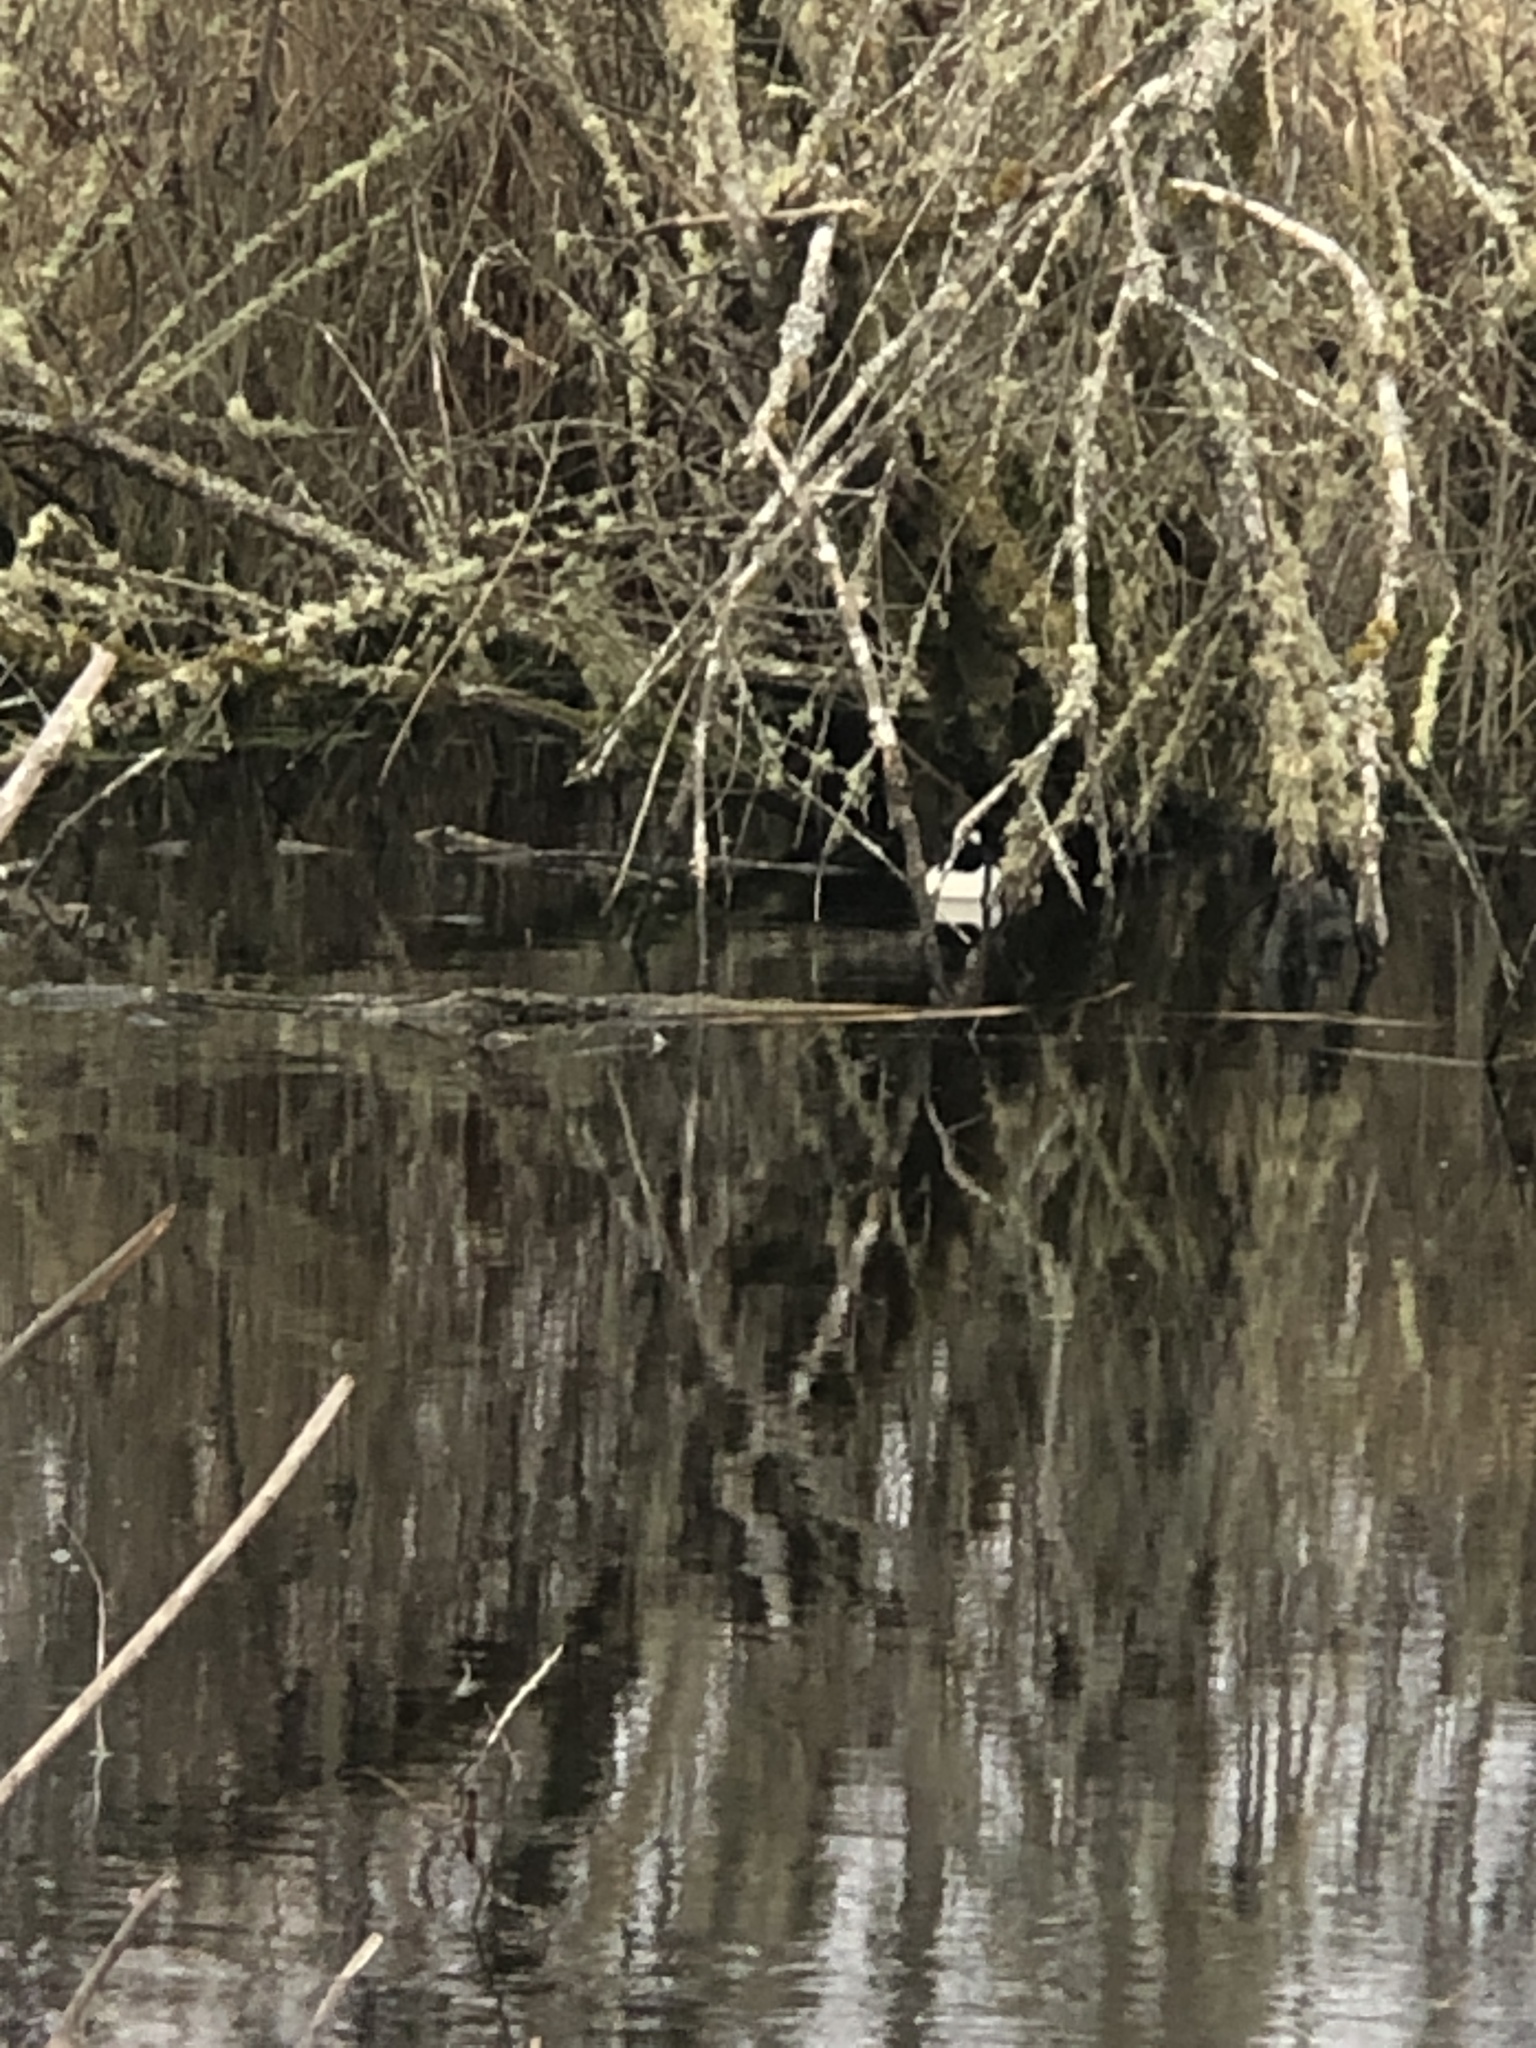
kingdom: Animalia
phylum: Chordata
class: Aves
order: Anseriformes
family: Anatidae
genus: Lophodytes
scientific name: Lophodytes cucullatus
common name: Hooded merganser
